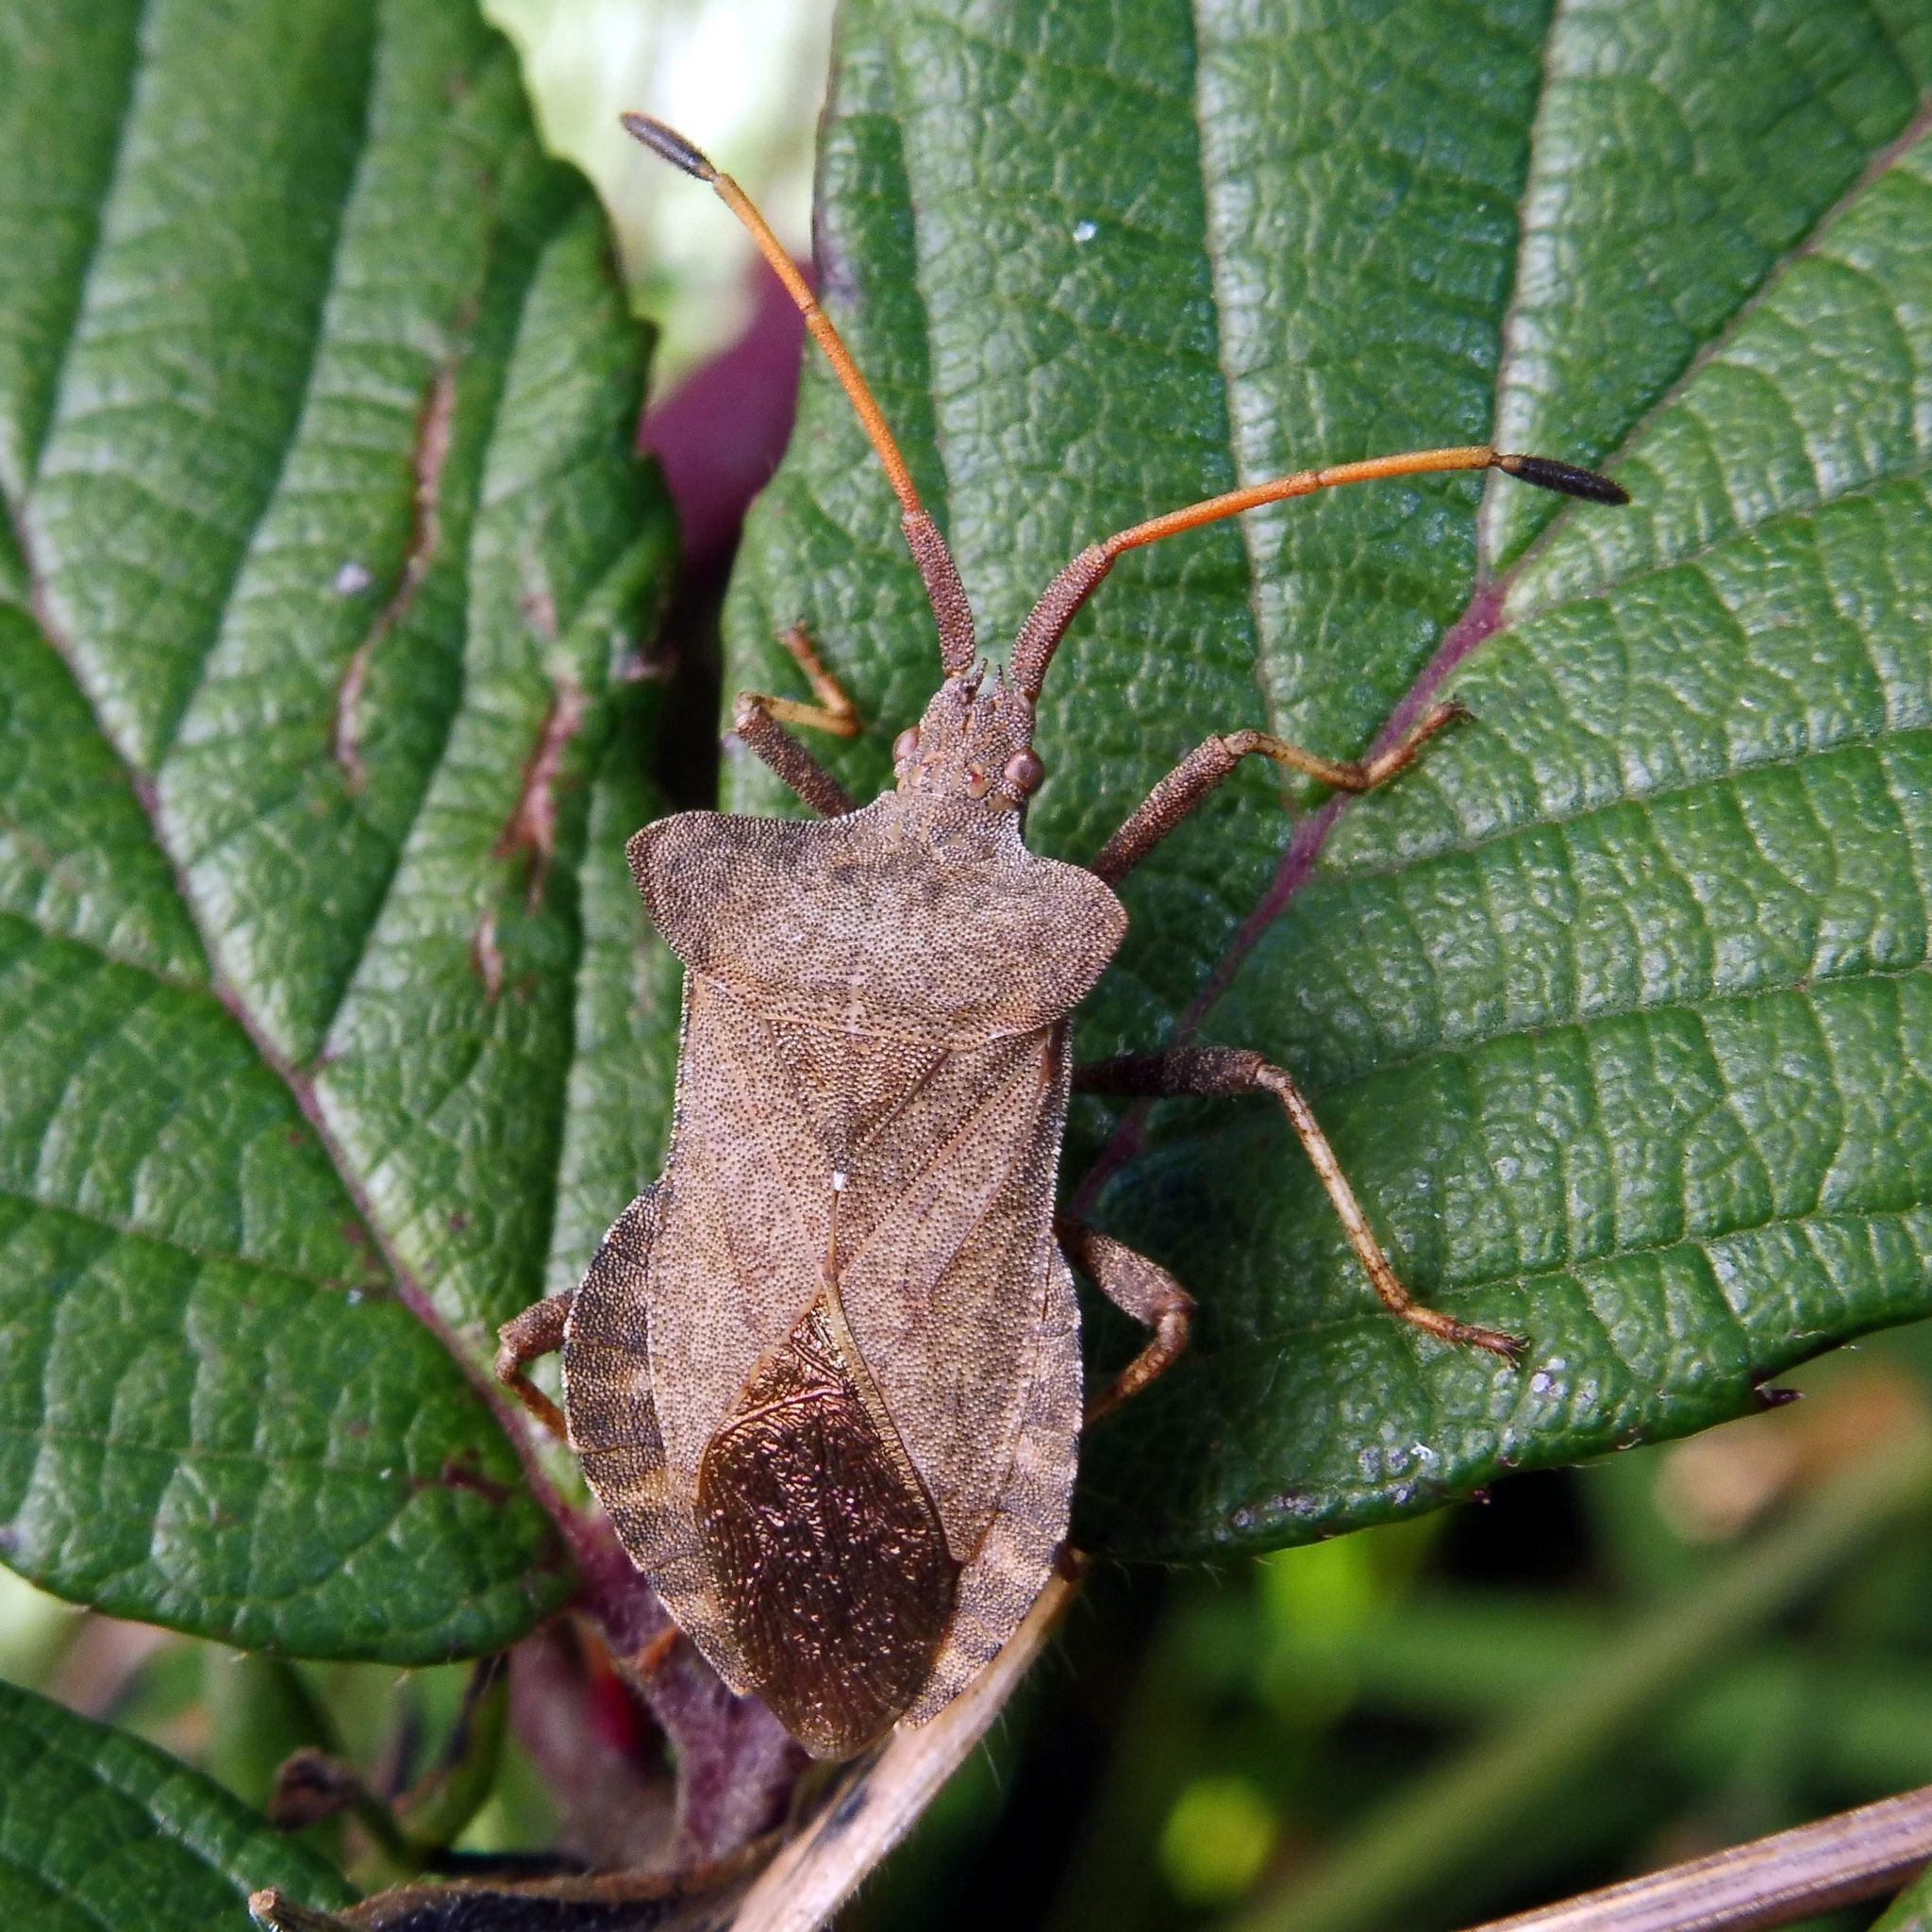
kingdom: Animalia
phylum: Arthropoda
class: Insecta
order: Hemiptera
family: Coreidae
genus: Coreus
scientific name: Coreus marginatus
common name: Dock bug
